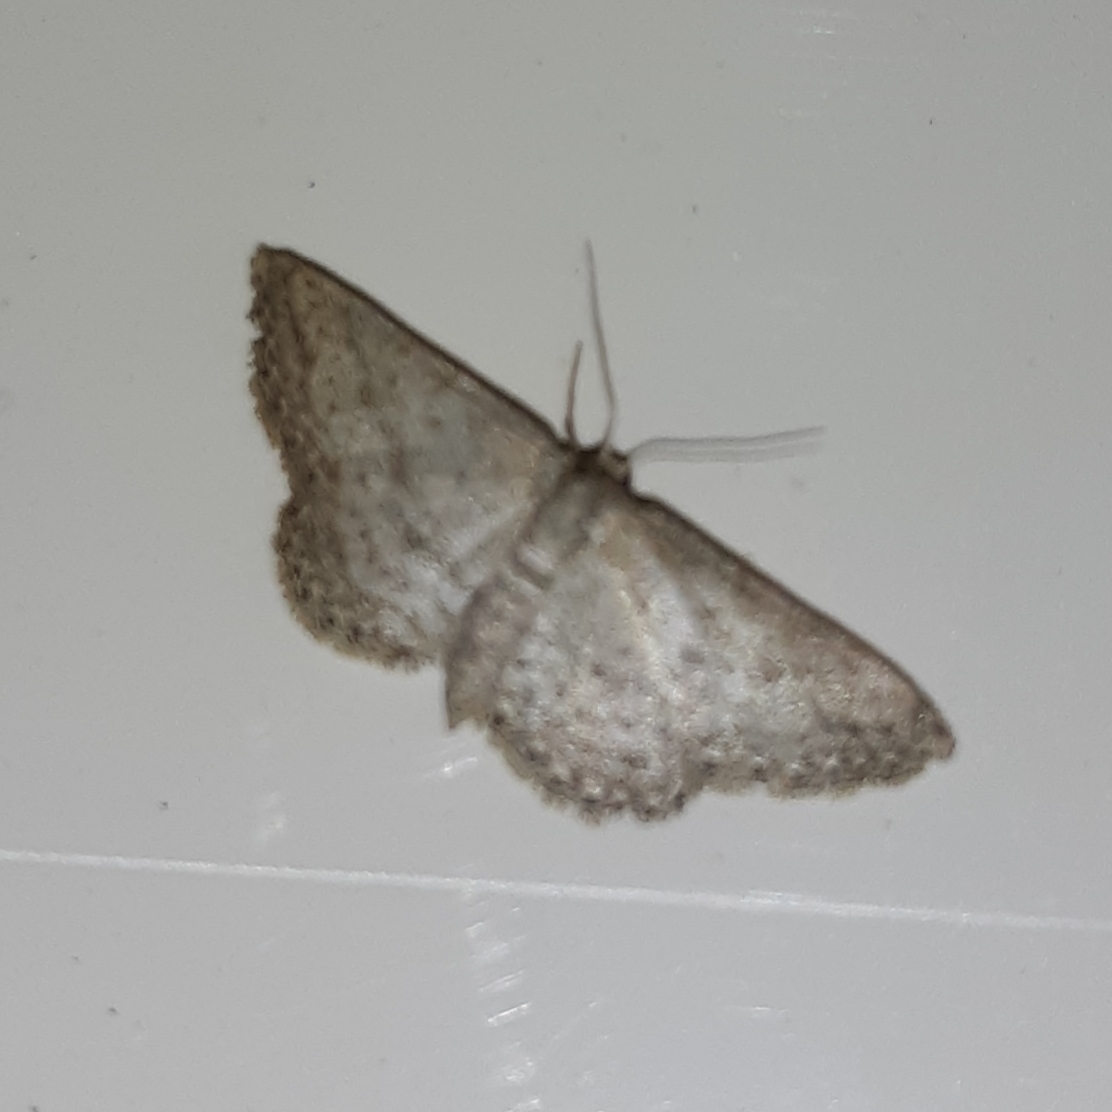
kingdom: Animalia
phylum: Arthropoda
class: Insecta
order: Lepidoptera
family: Geometridae
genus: Lobocleta
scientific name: Lobocleta ossularia
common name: Drab brown wave
